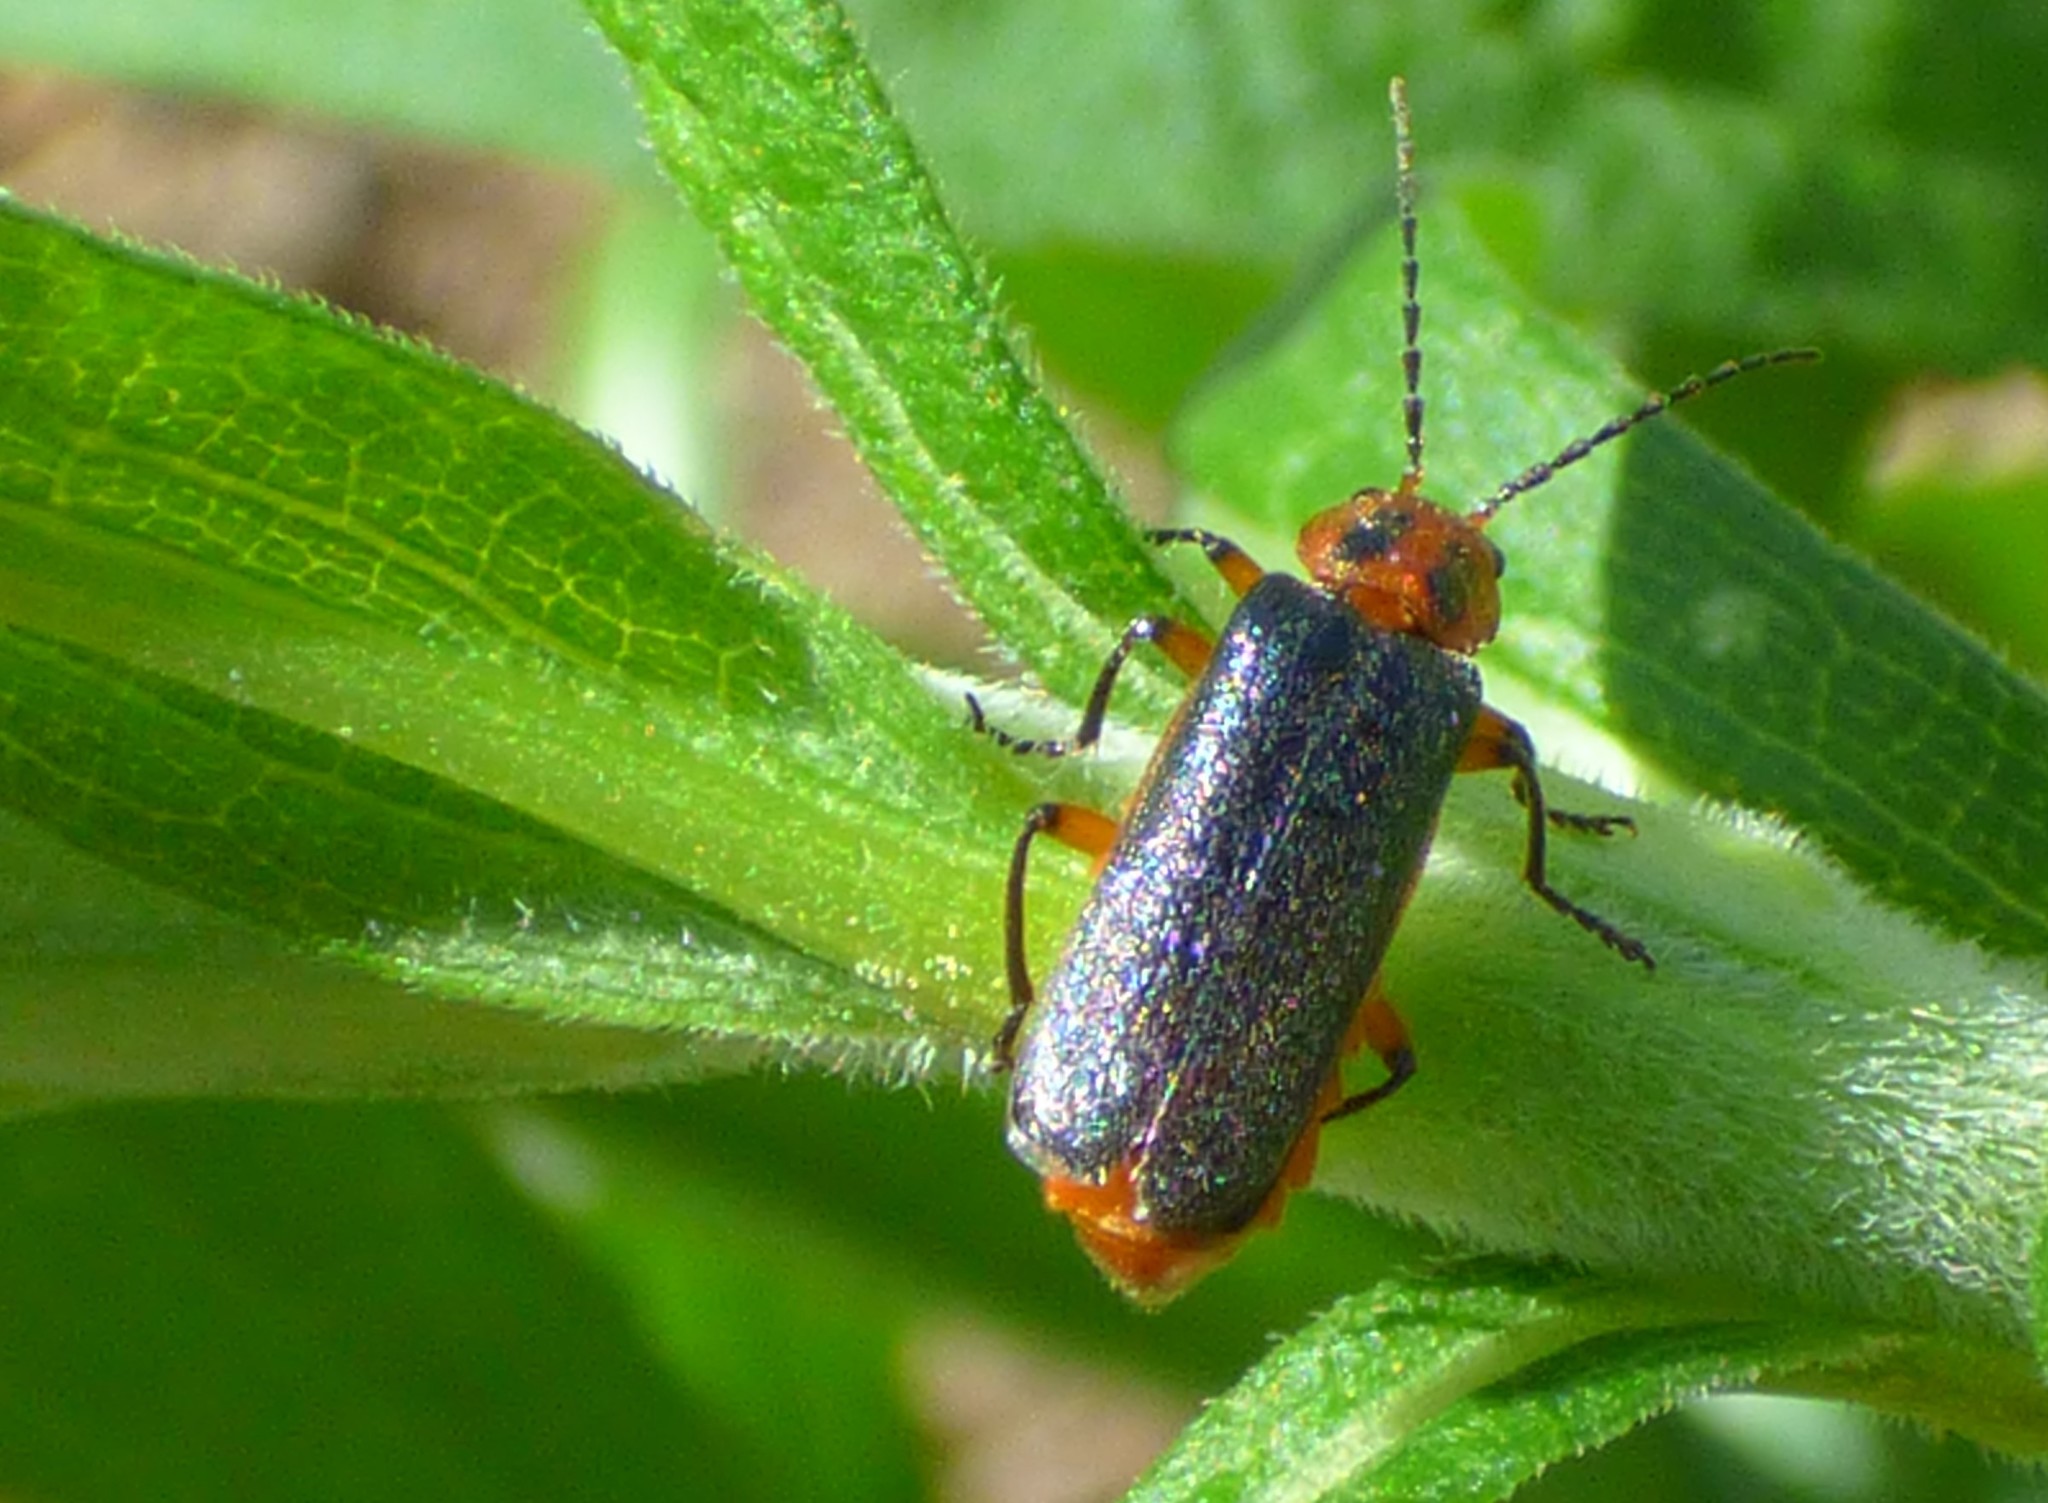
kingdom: Animalia
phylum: Arthropoda
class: Insecta
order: Coleoptera
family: Cantharidae
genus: Atalantycha
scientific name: Atalantycha bilineata
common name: Two-lined leatherwing
